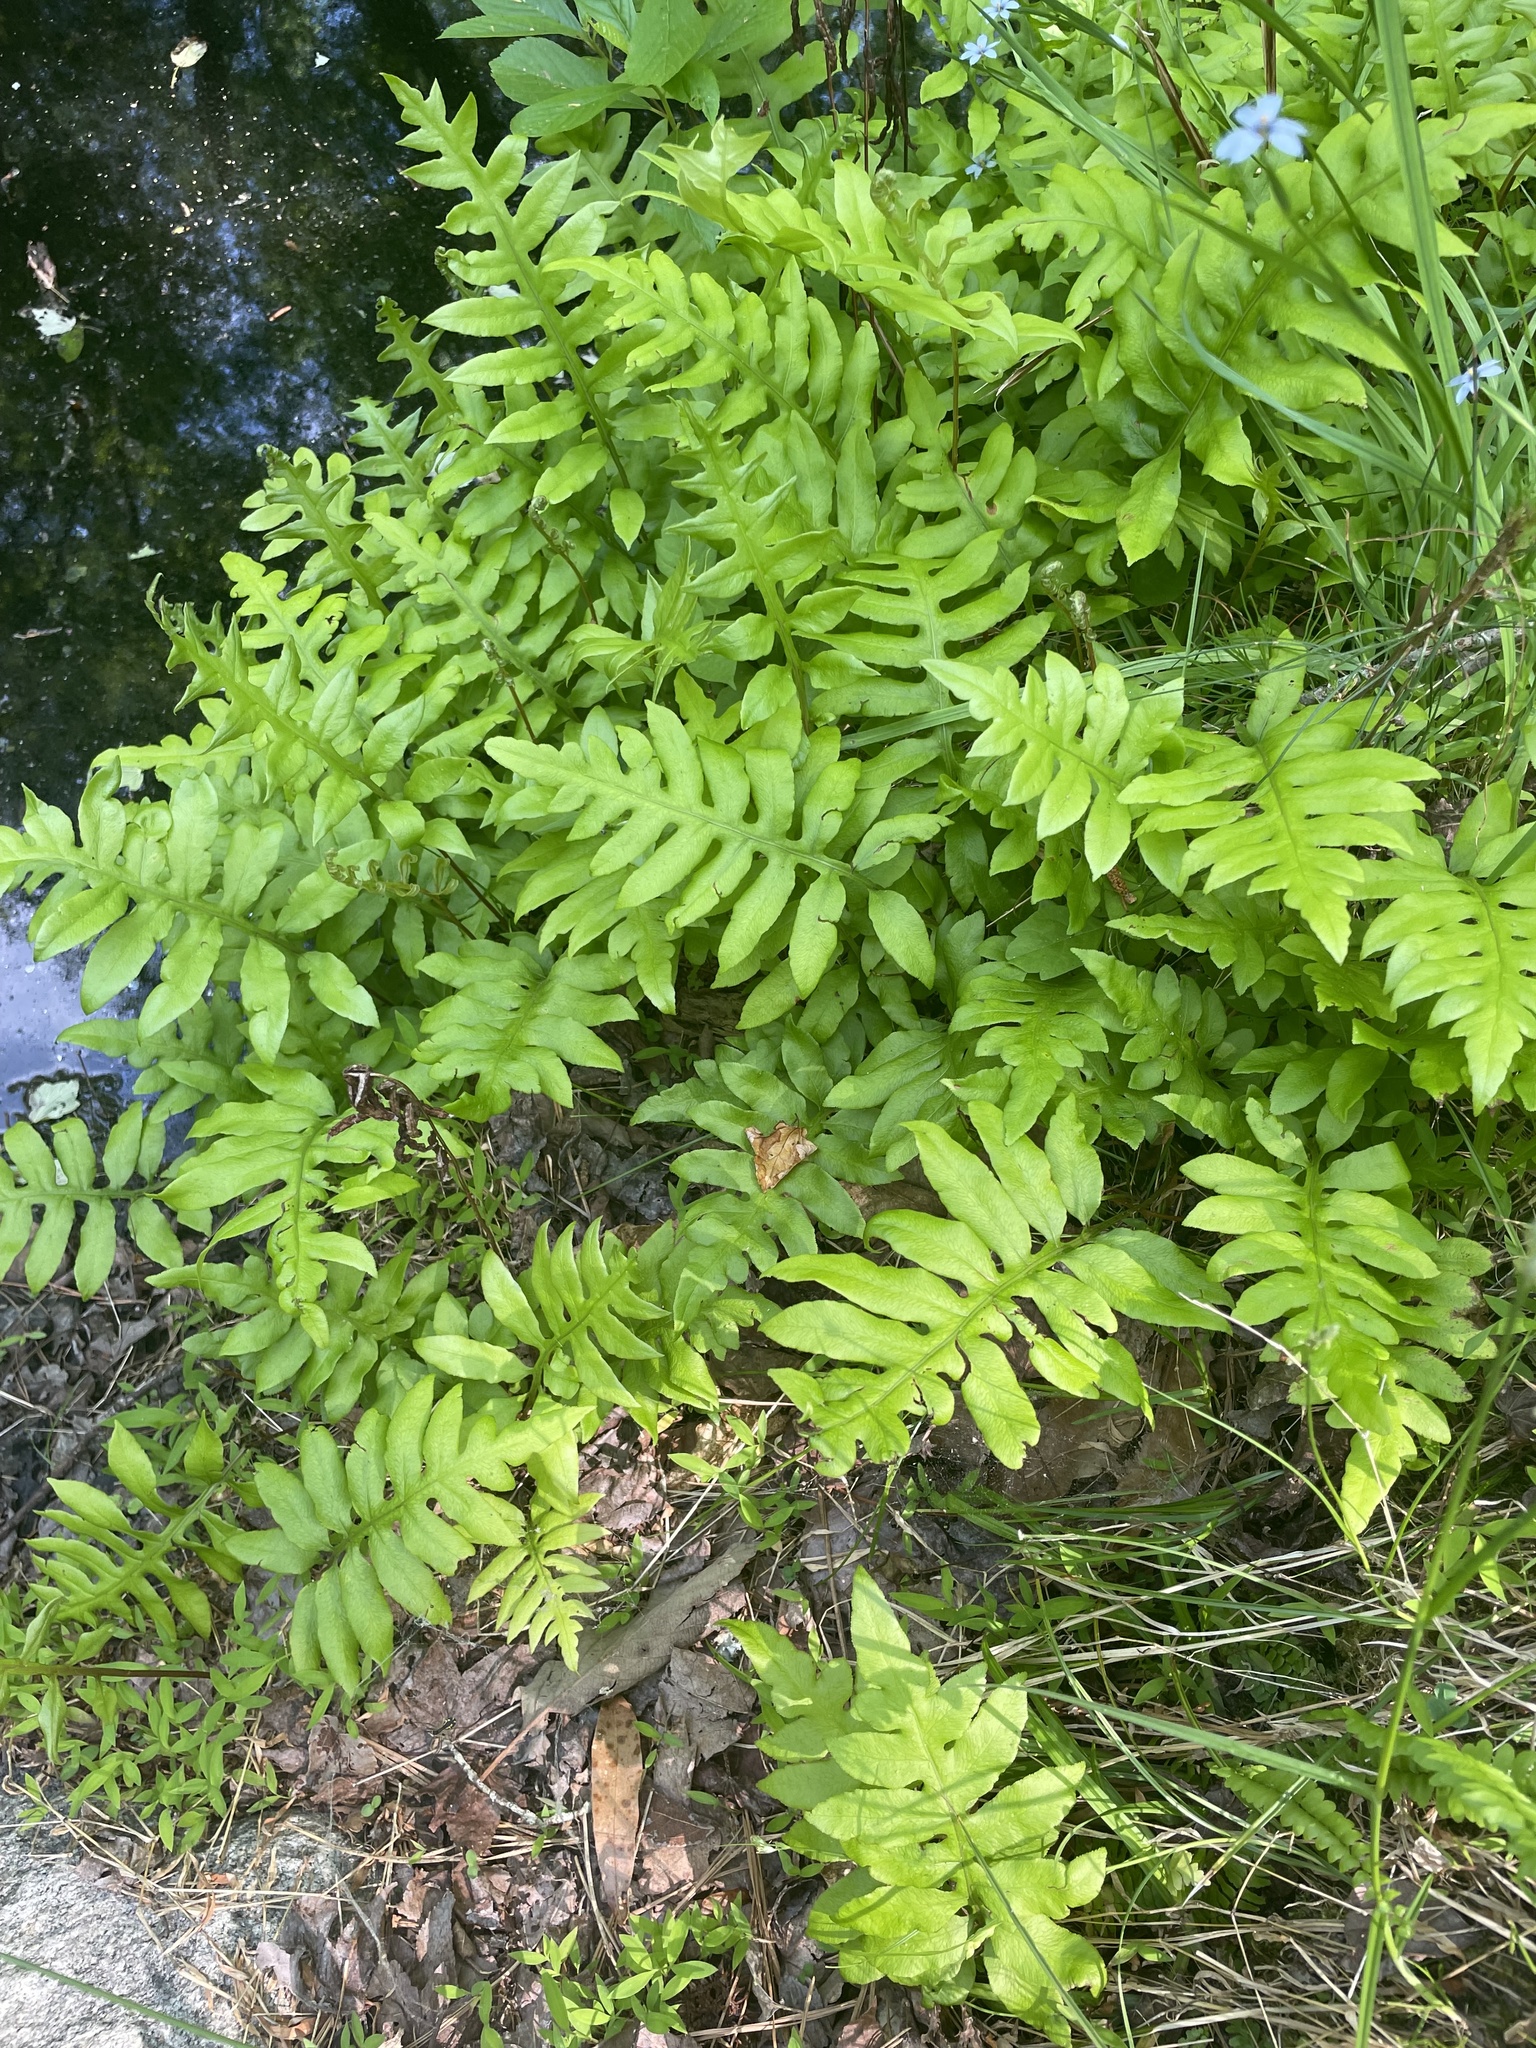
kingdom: Plantae
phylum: Tracheophyta
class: Polypodiopsida
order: Polypodiales
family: Blechnaceae
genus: Lorinseria
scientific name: Lorinseria areolata
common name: Dwarf chain fern
